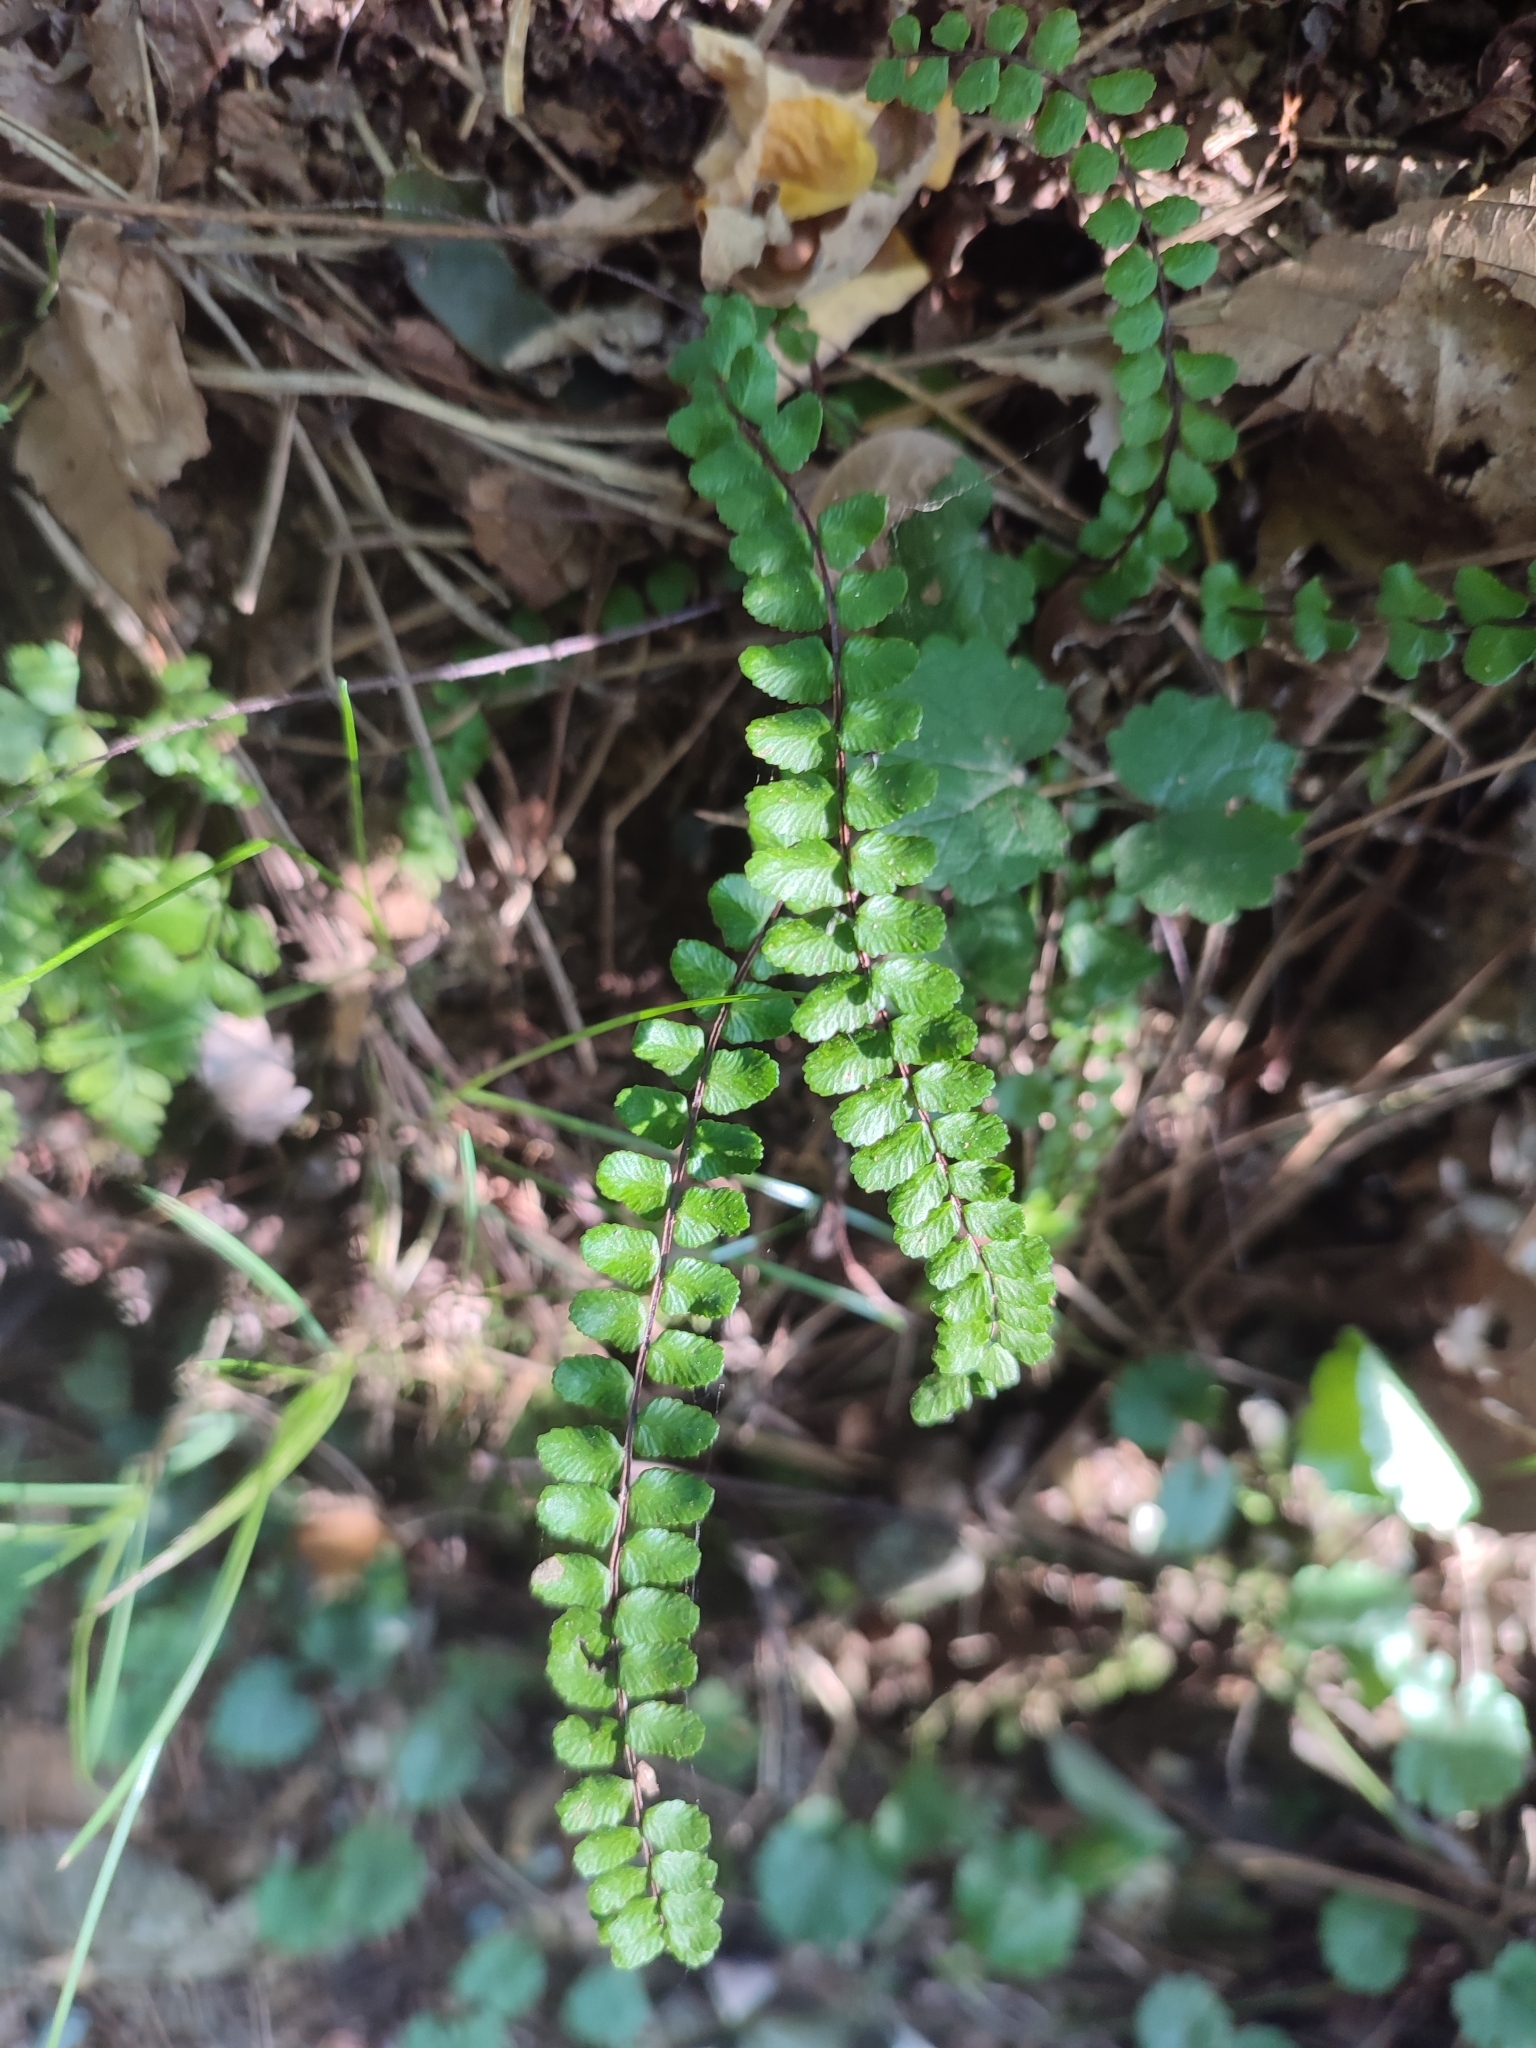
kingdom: Plantae
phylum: Tracheophyta
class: Polypodiopsida
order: Polypodiales
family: Aspleniaceae
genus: Asplenium
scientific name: Asplenium trichomanes
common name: Maidenhair spleenwort
